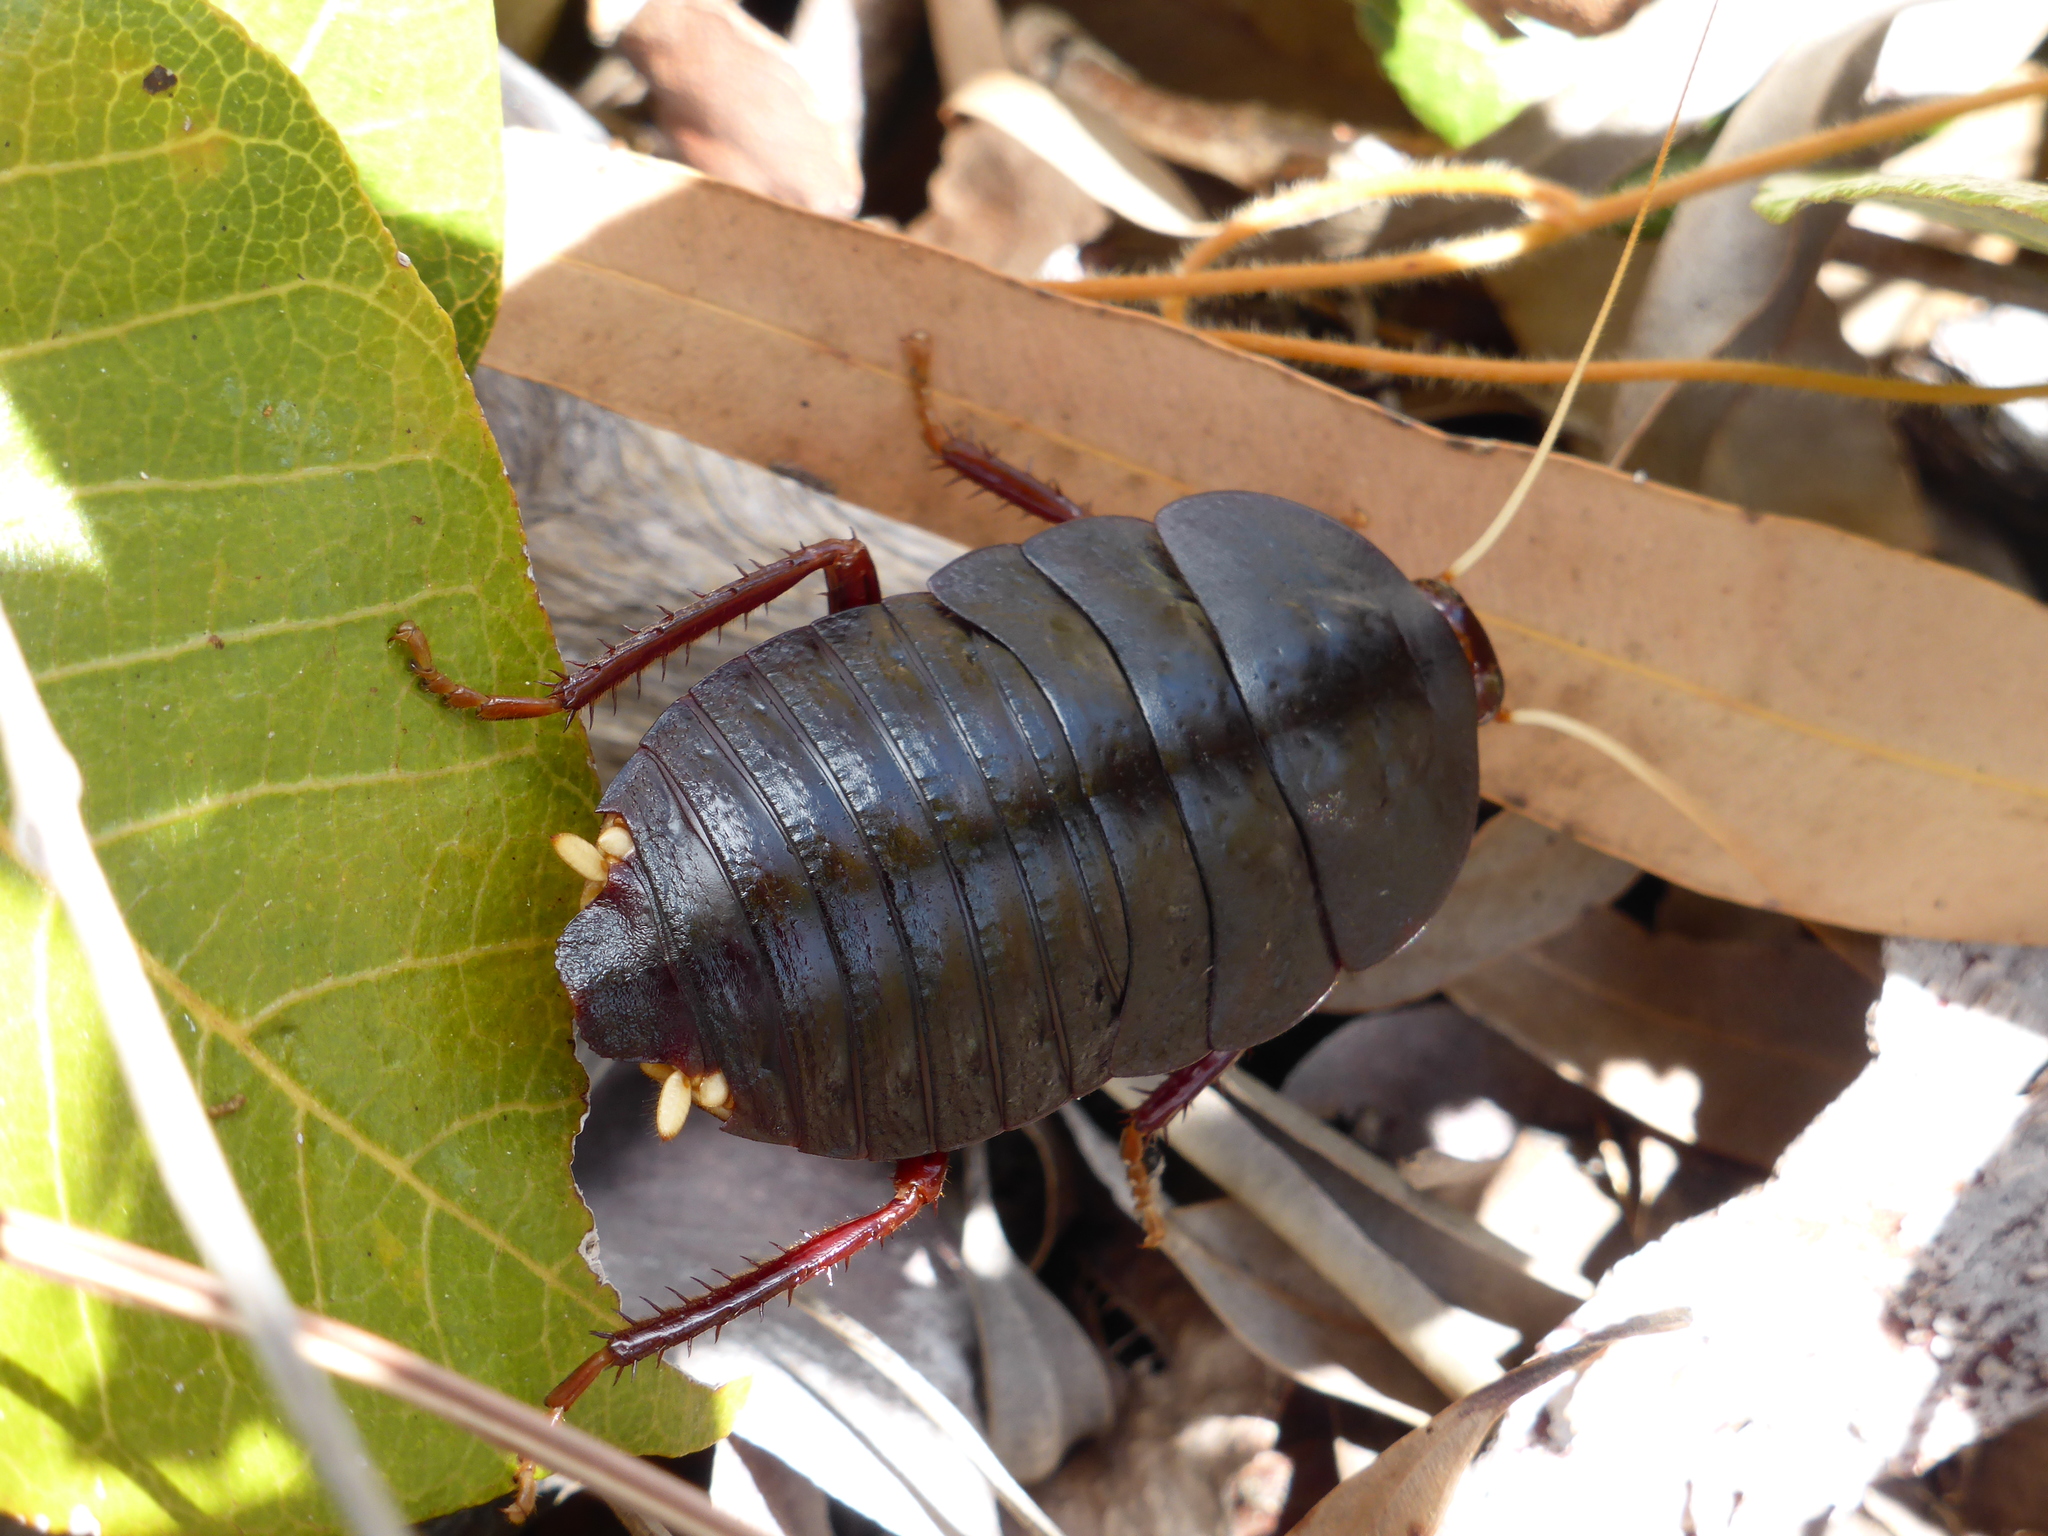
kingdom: Animalia
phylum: Arthropoda
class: Insecta
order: Blattodea
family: Blattidae
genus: Cosmozosteria
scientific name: Cosmozosteria musgravei
